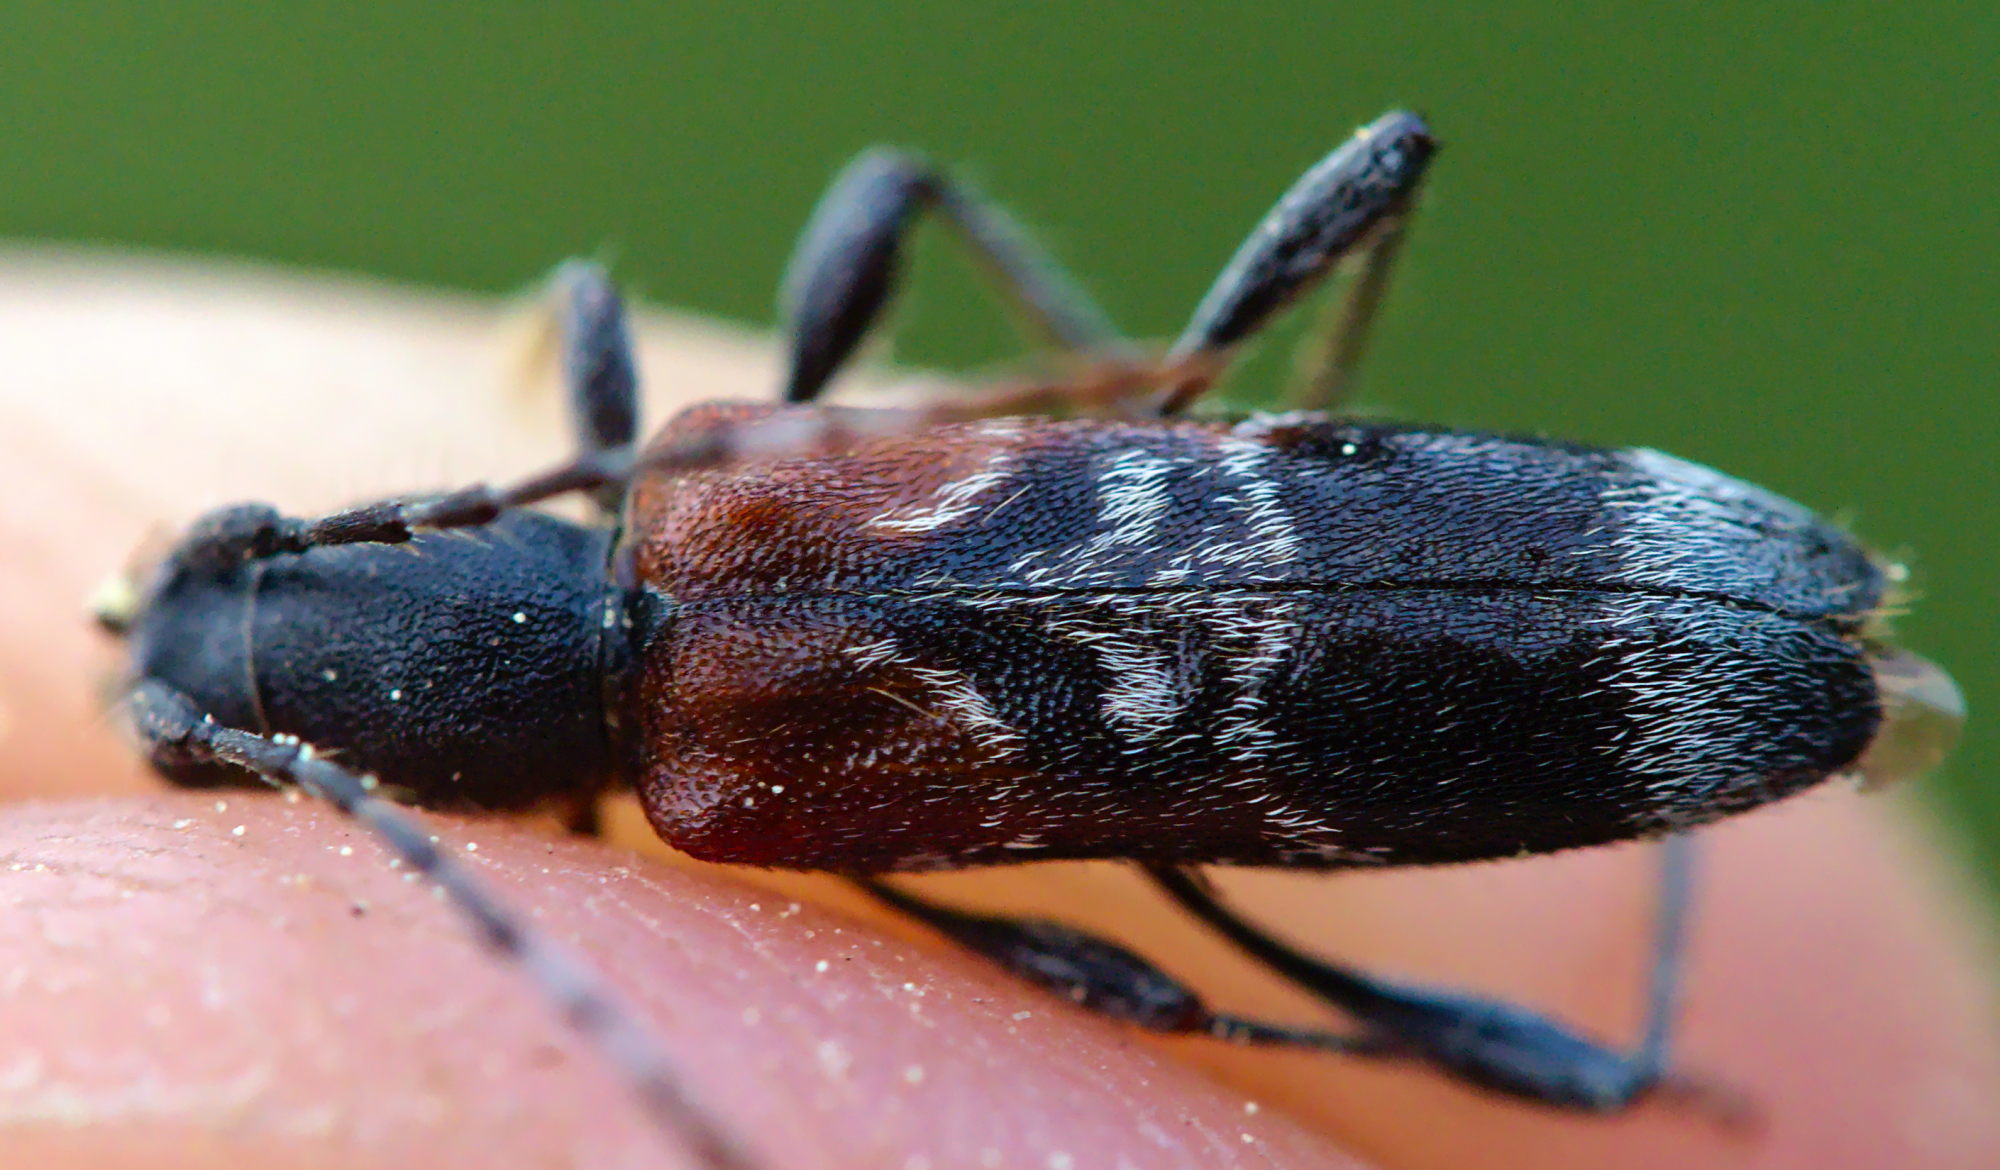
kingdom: Animalia
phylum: Arthropoda
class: Insecta
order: Coleoptera
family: Cerambycidae
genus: Anaglyptus
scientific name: Anaglyptus mysticus
